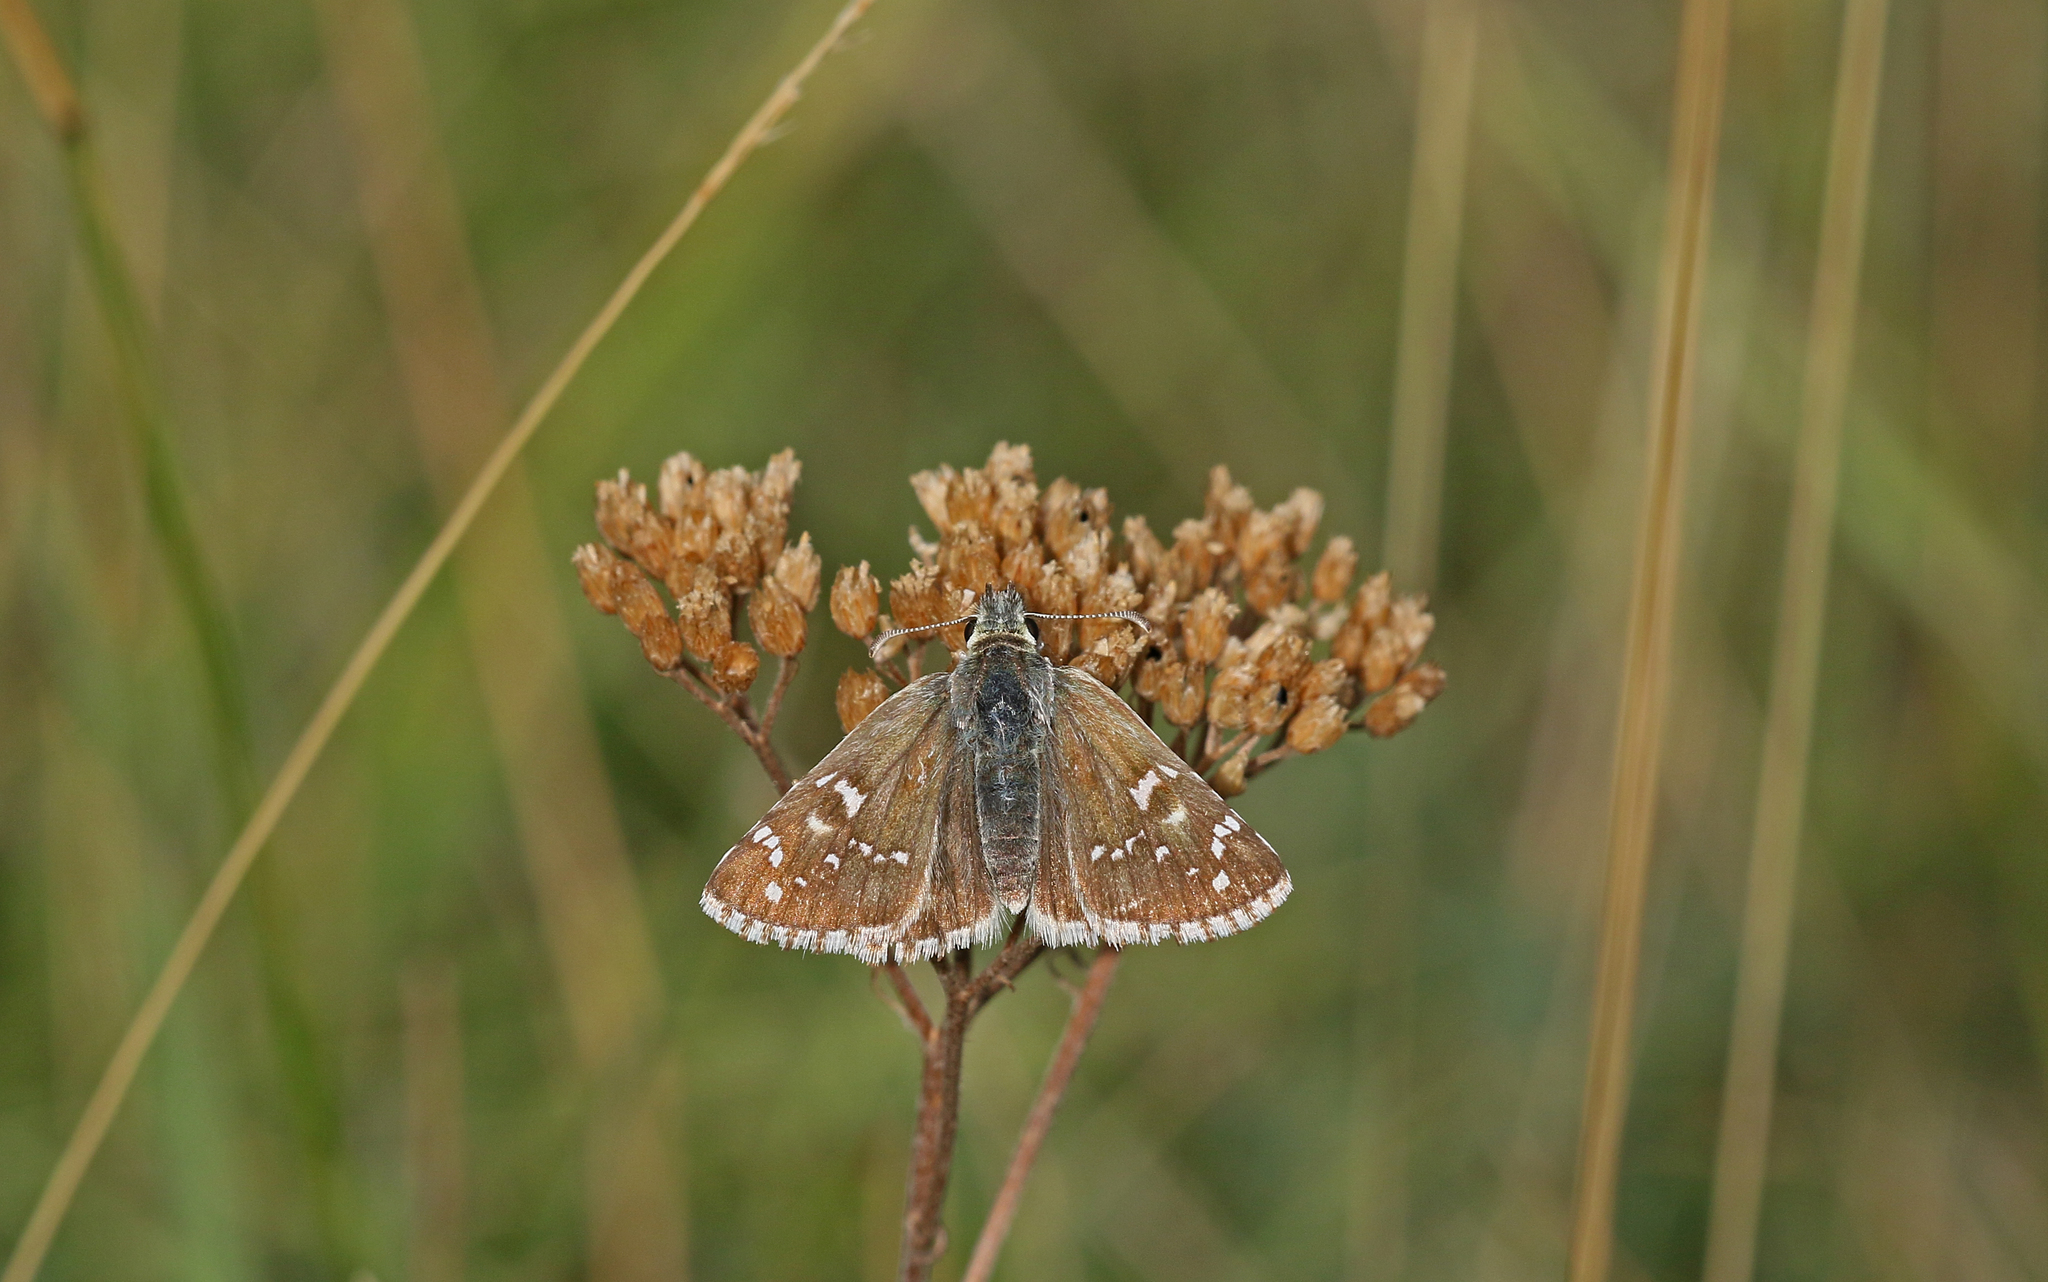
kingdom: Animalia
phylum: Arthropoda
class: Insecta
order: Lepidoptera
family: Hesperiidae
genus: Pyrgus
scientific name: Pyrgus fritillarius
